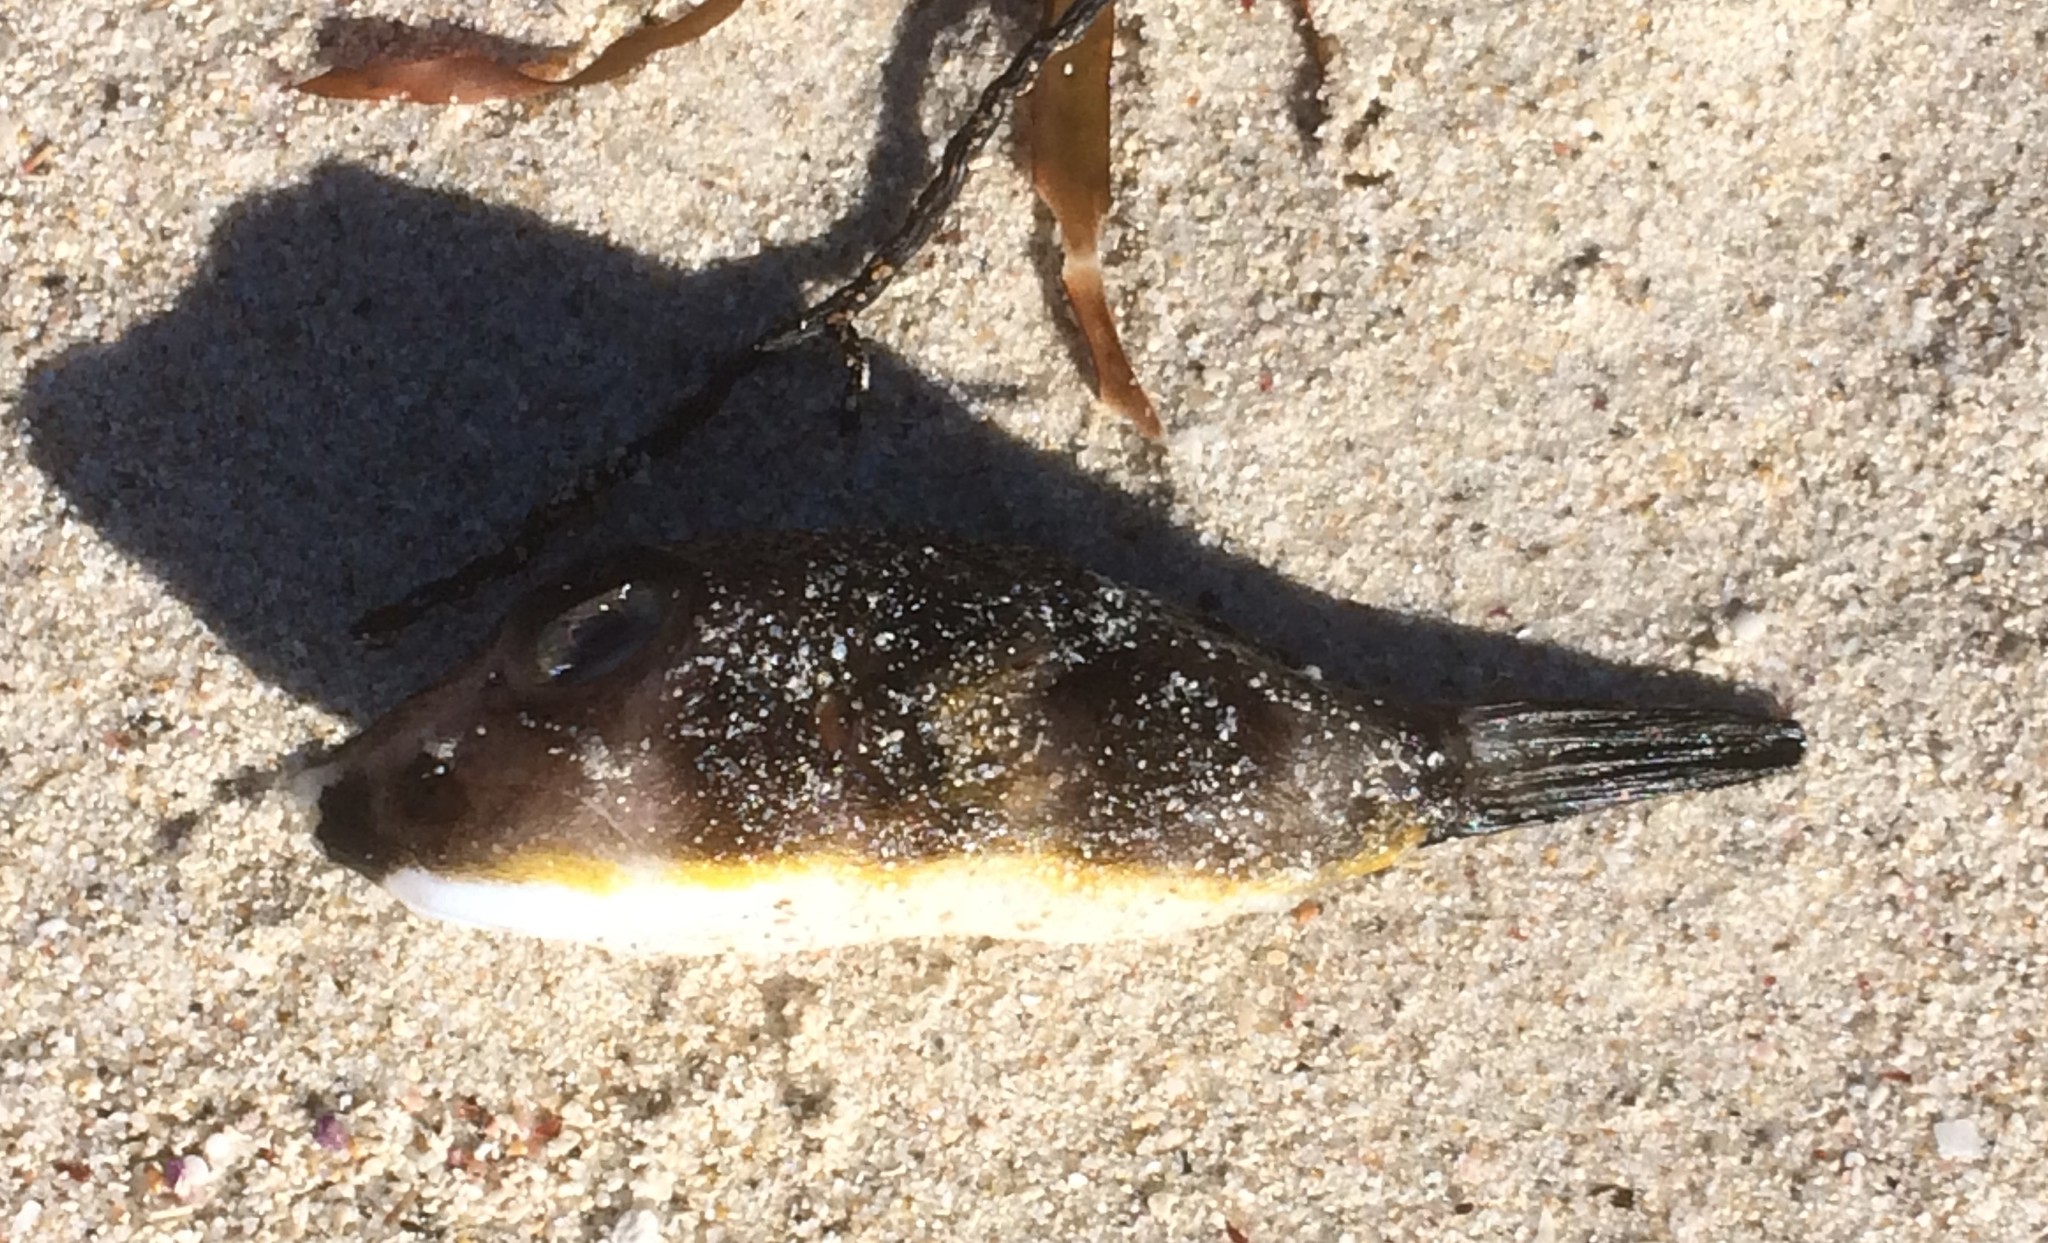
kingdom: Animalia
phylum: Chordata
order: Tetraodontiformes
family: Tetraodontidae
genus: Omegophora
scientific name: Omegophora cyanopunctata
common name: Bluespotted toadfish
